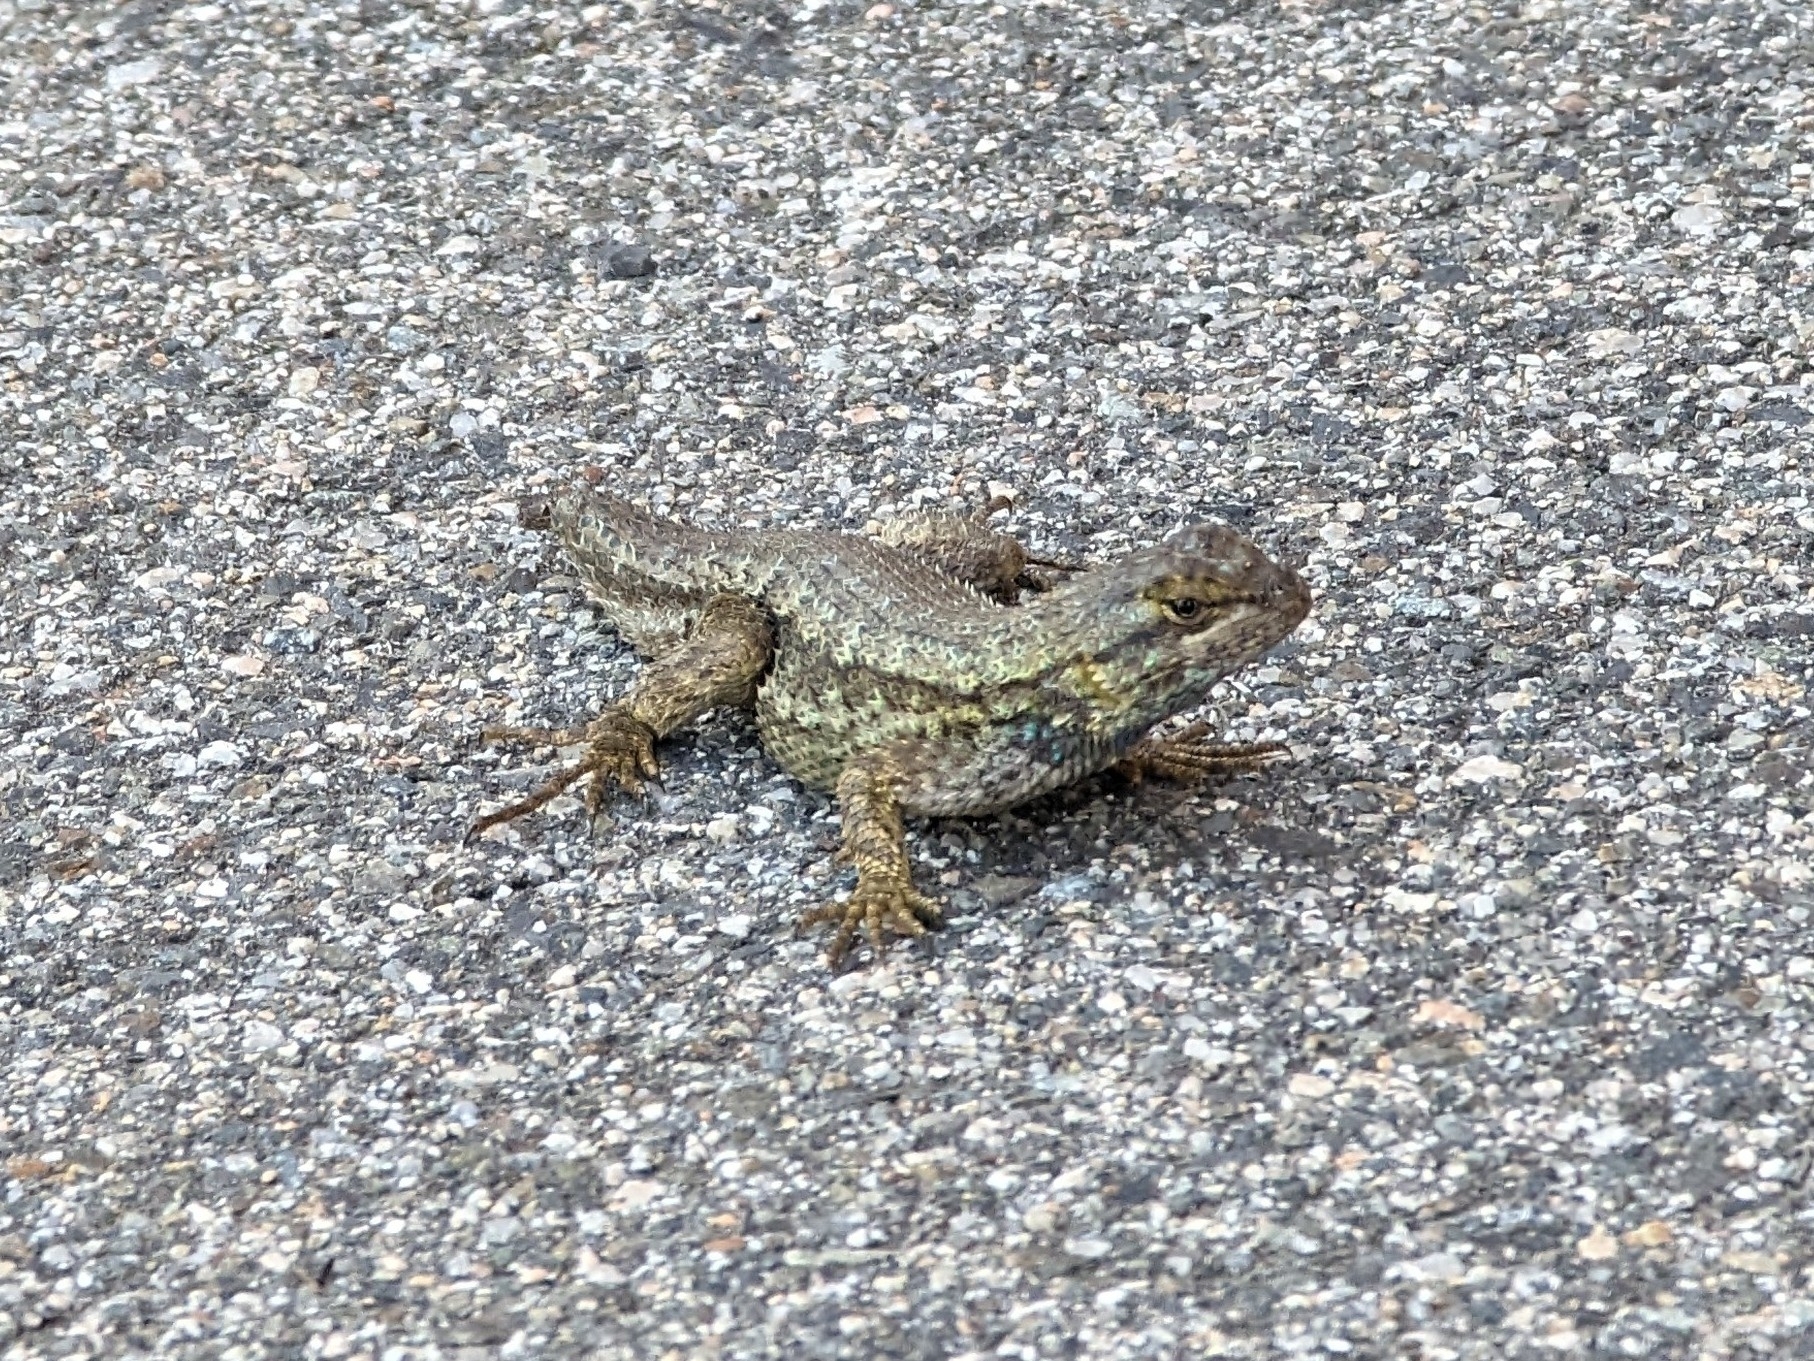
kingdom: Animalia
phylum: Chordata
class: Squamata
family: Phrynosomatidae
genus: Sceloporus
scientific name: Sceloporus occidentalis
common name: Western fence lizard
